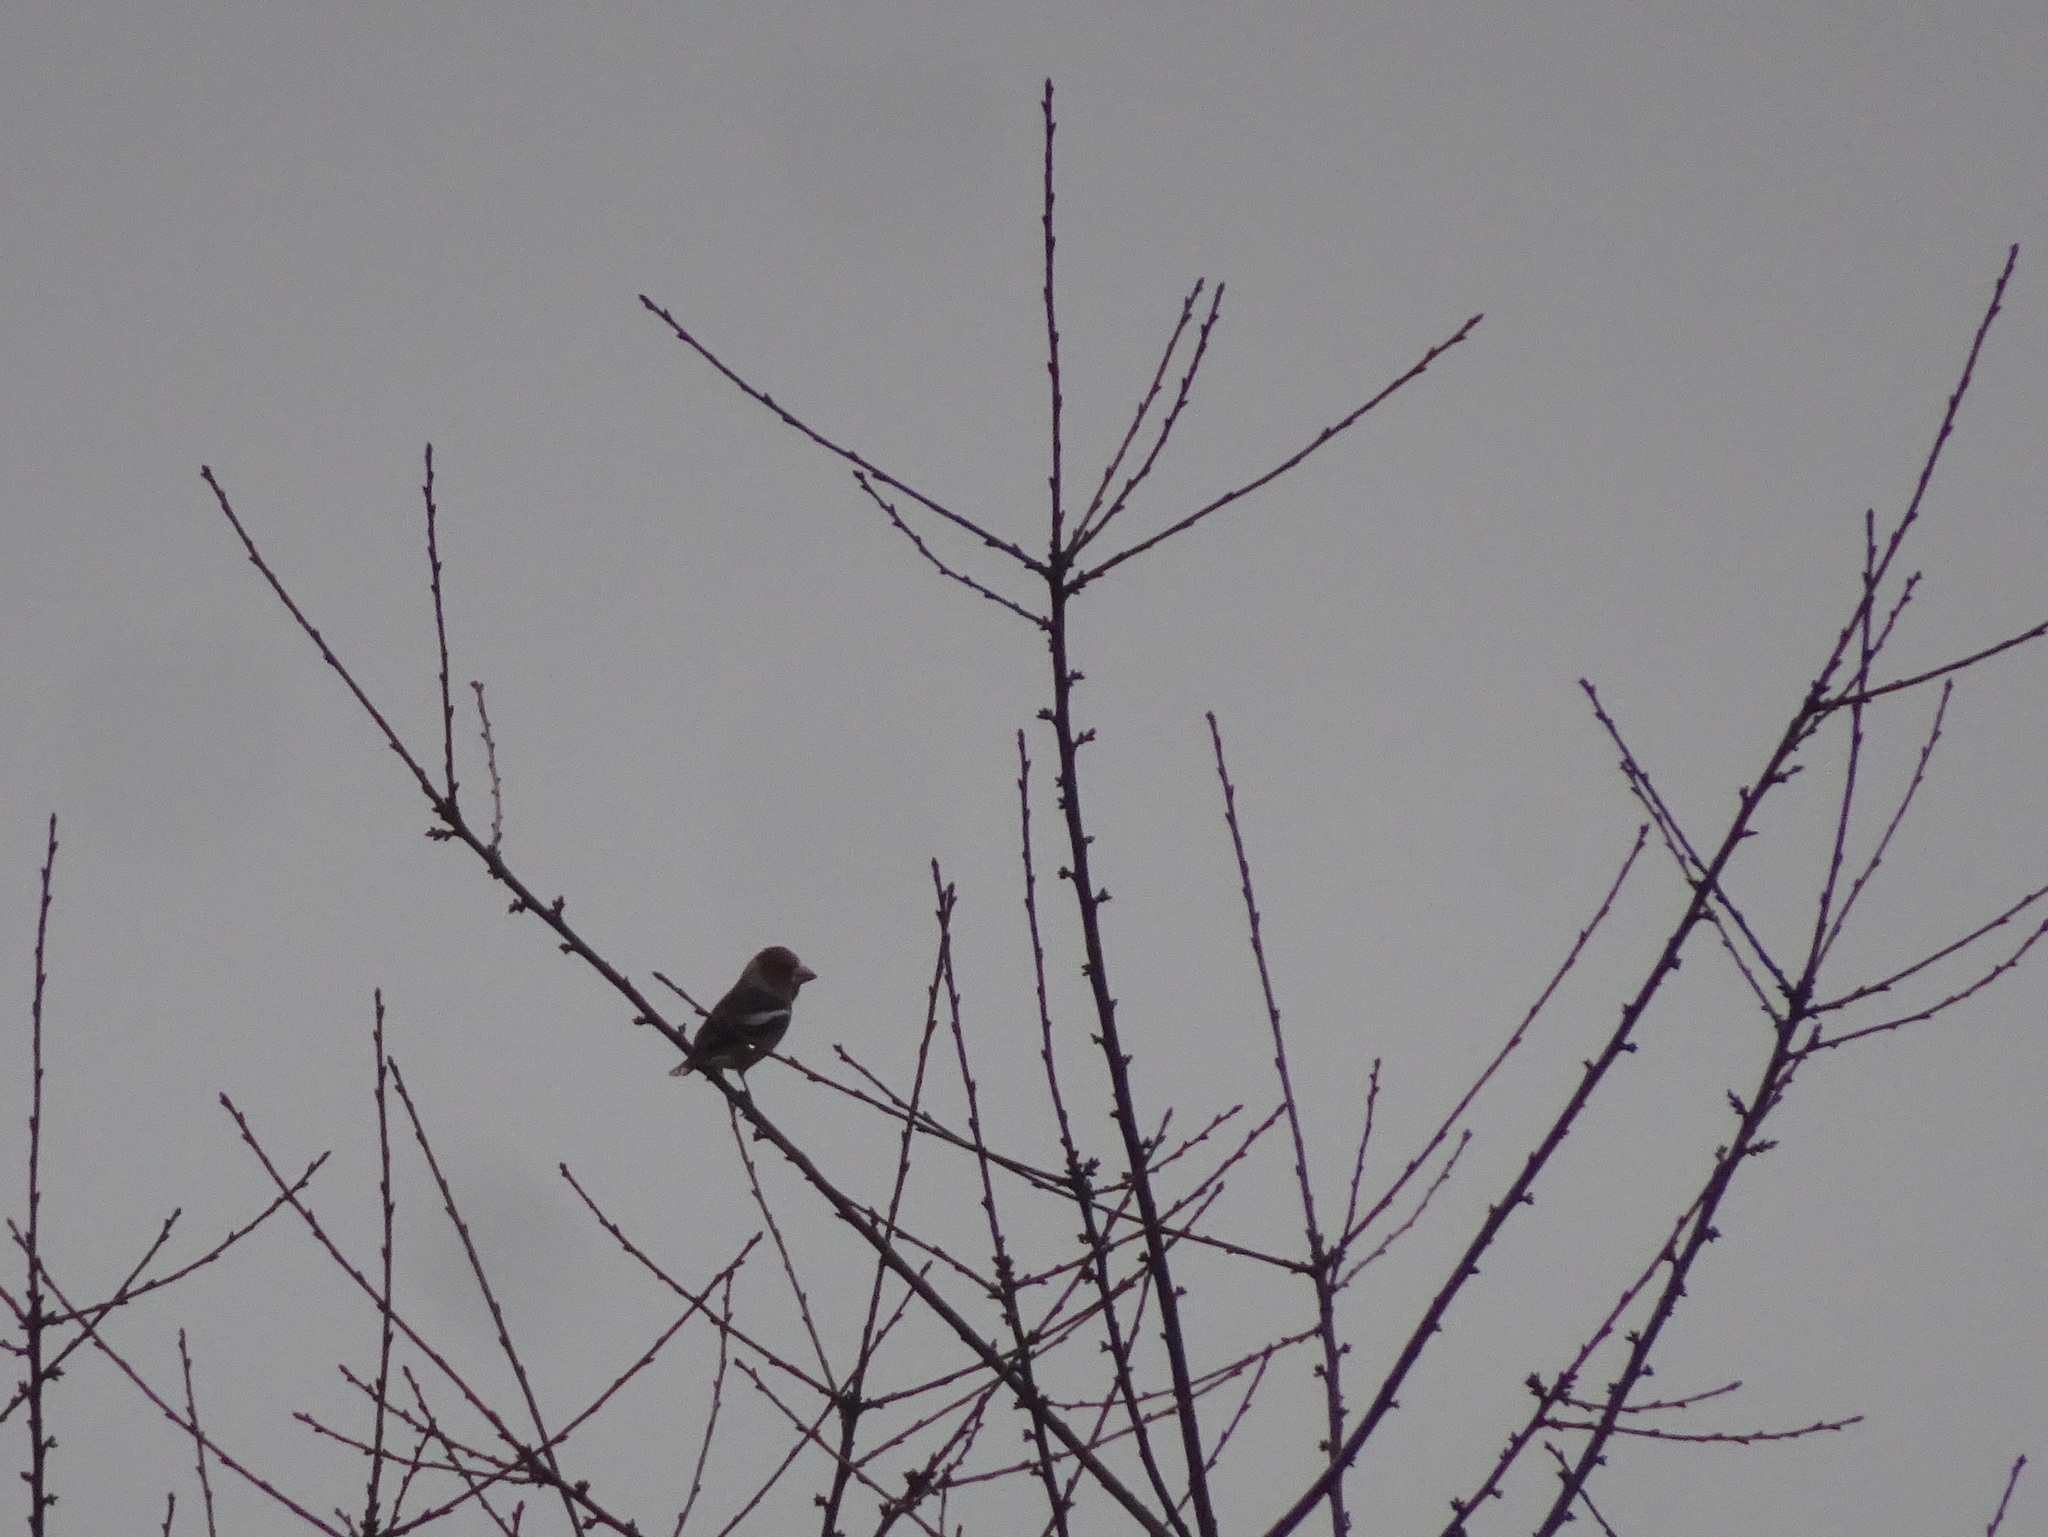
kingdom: Animalia
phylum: Chordata
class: Aves
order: Passeriformes
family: Fringillidae
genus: Coccothraustes
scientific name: Coccothraustes coccothraustes
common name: Hawfinch
